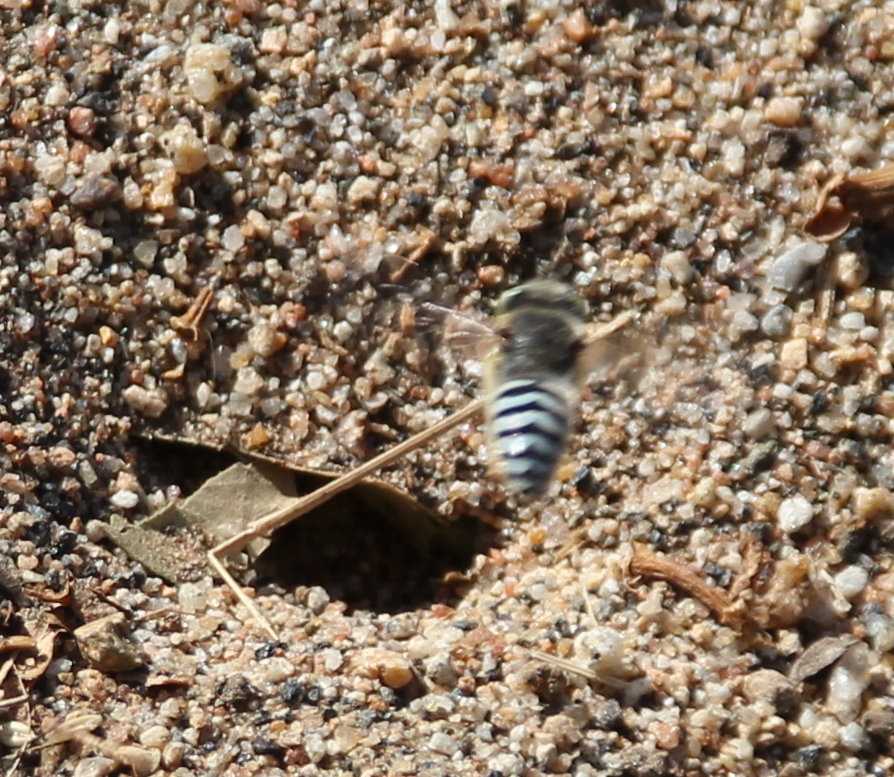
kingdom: Animalia
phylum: Arthropoda
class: Insecta
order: Hymenoptera
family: Crabronidae
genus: Bembix
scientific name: Bembix americana
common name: American sand wasp
